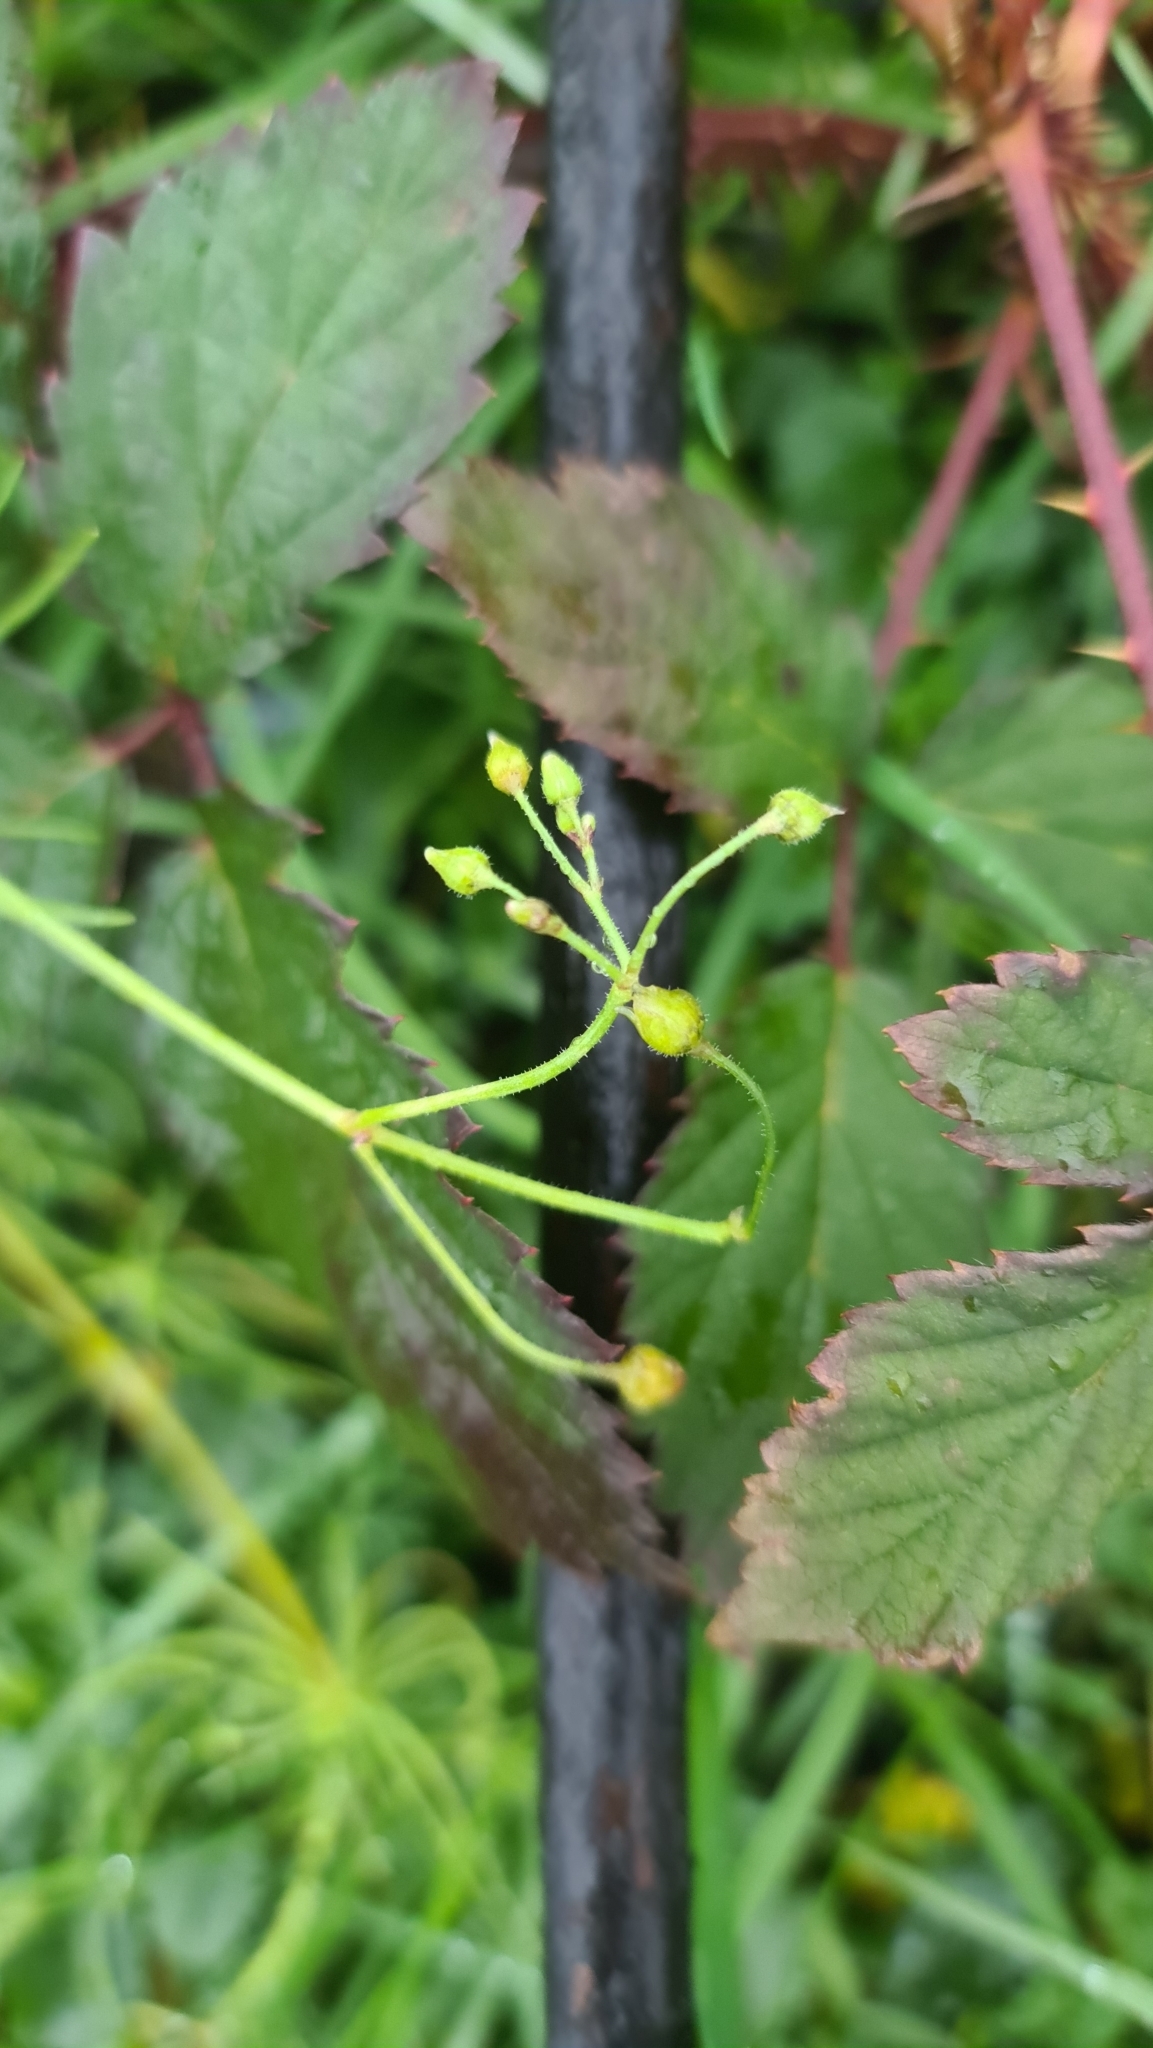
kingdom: Plantae
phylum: Tracheophyta
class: Magnoliopsida
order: Caryophyllales
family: Caryophyllaceae
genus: Spergula
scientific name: Spergula arvensis
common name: Corn spurrey
